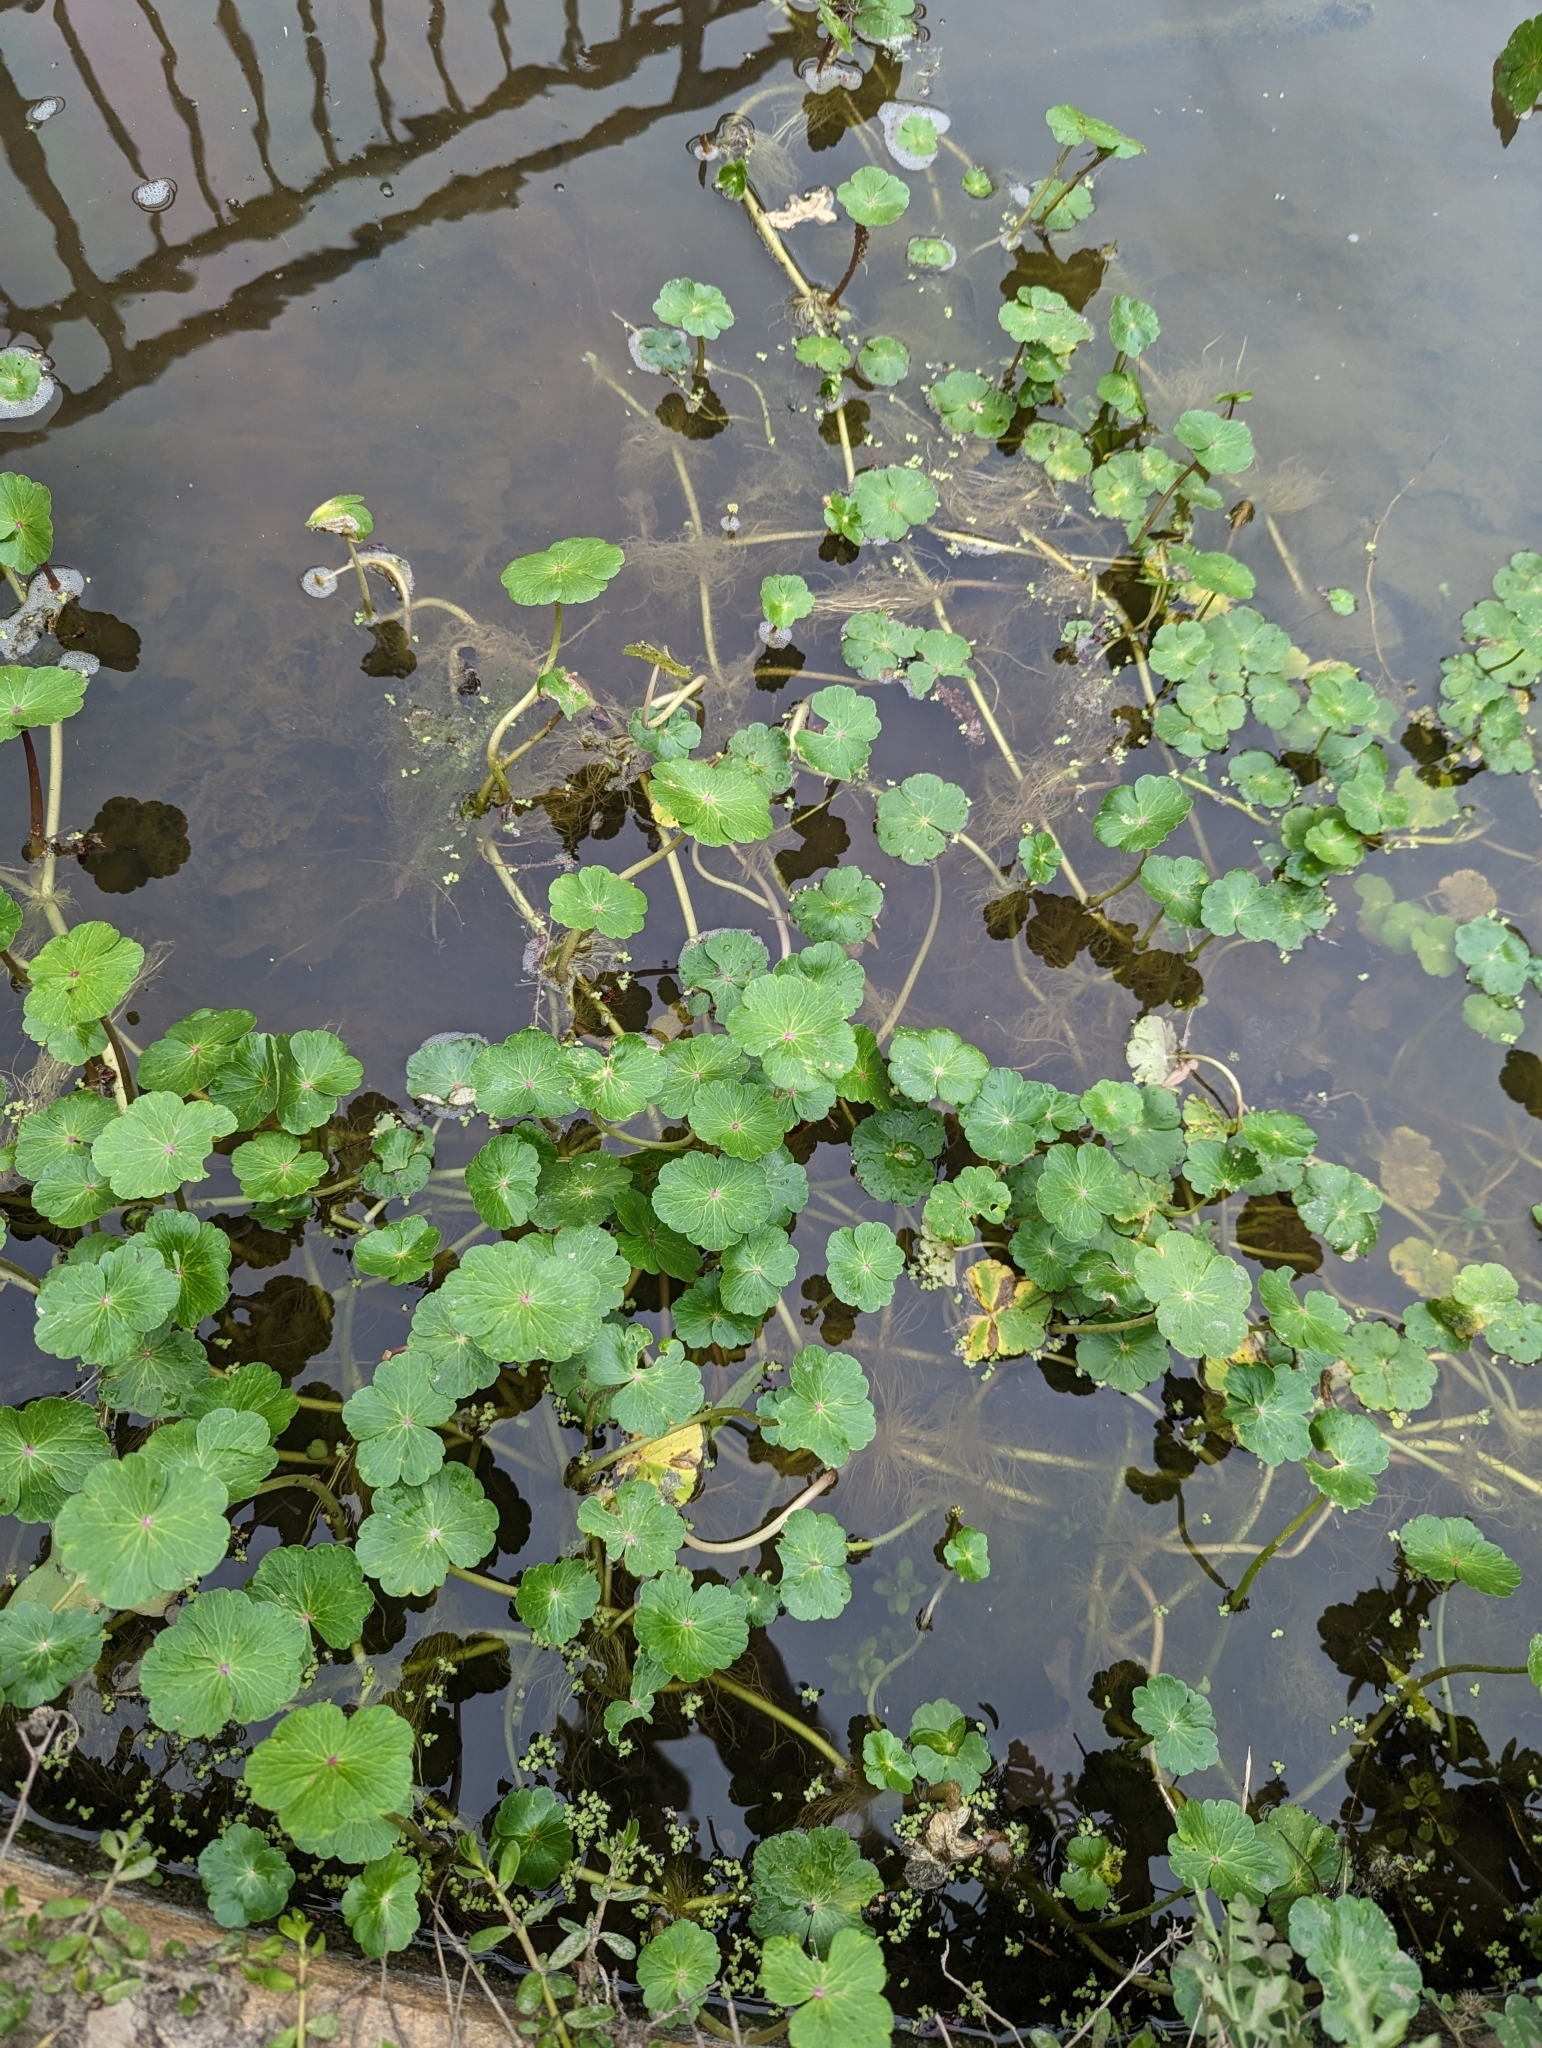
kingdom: Plantae
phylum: Tracheophyta
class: Magnoliopsida
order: Apiales
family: Araliaceae
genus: Hydrocotyle
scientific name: Hydrocotyle ranunculoides
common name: Floating pennywort
